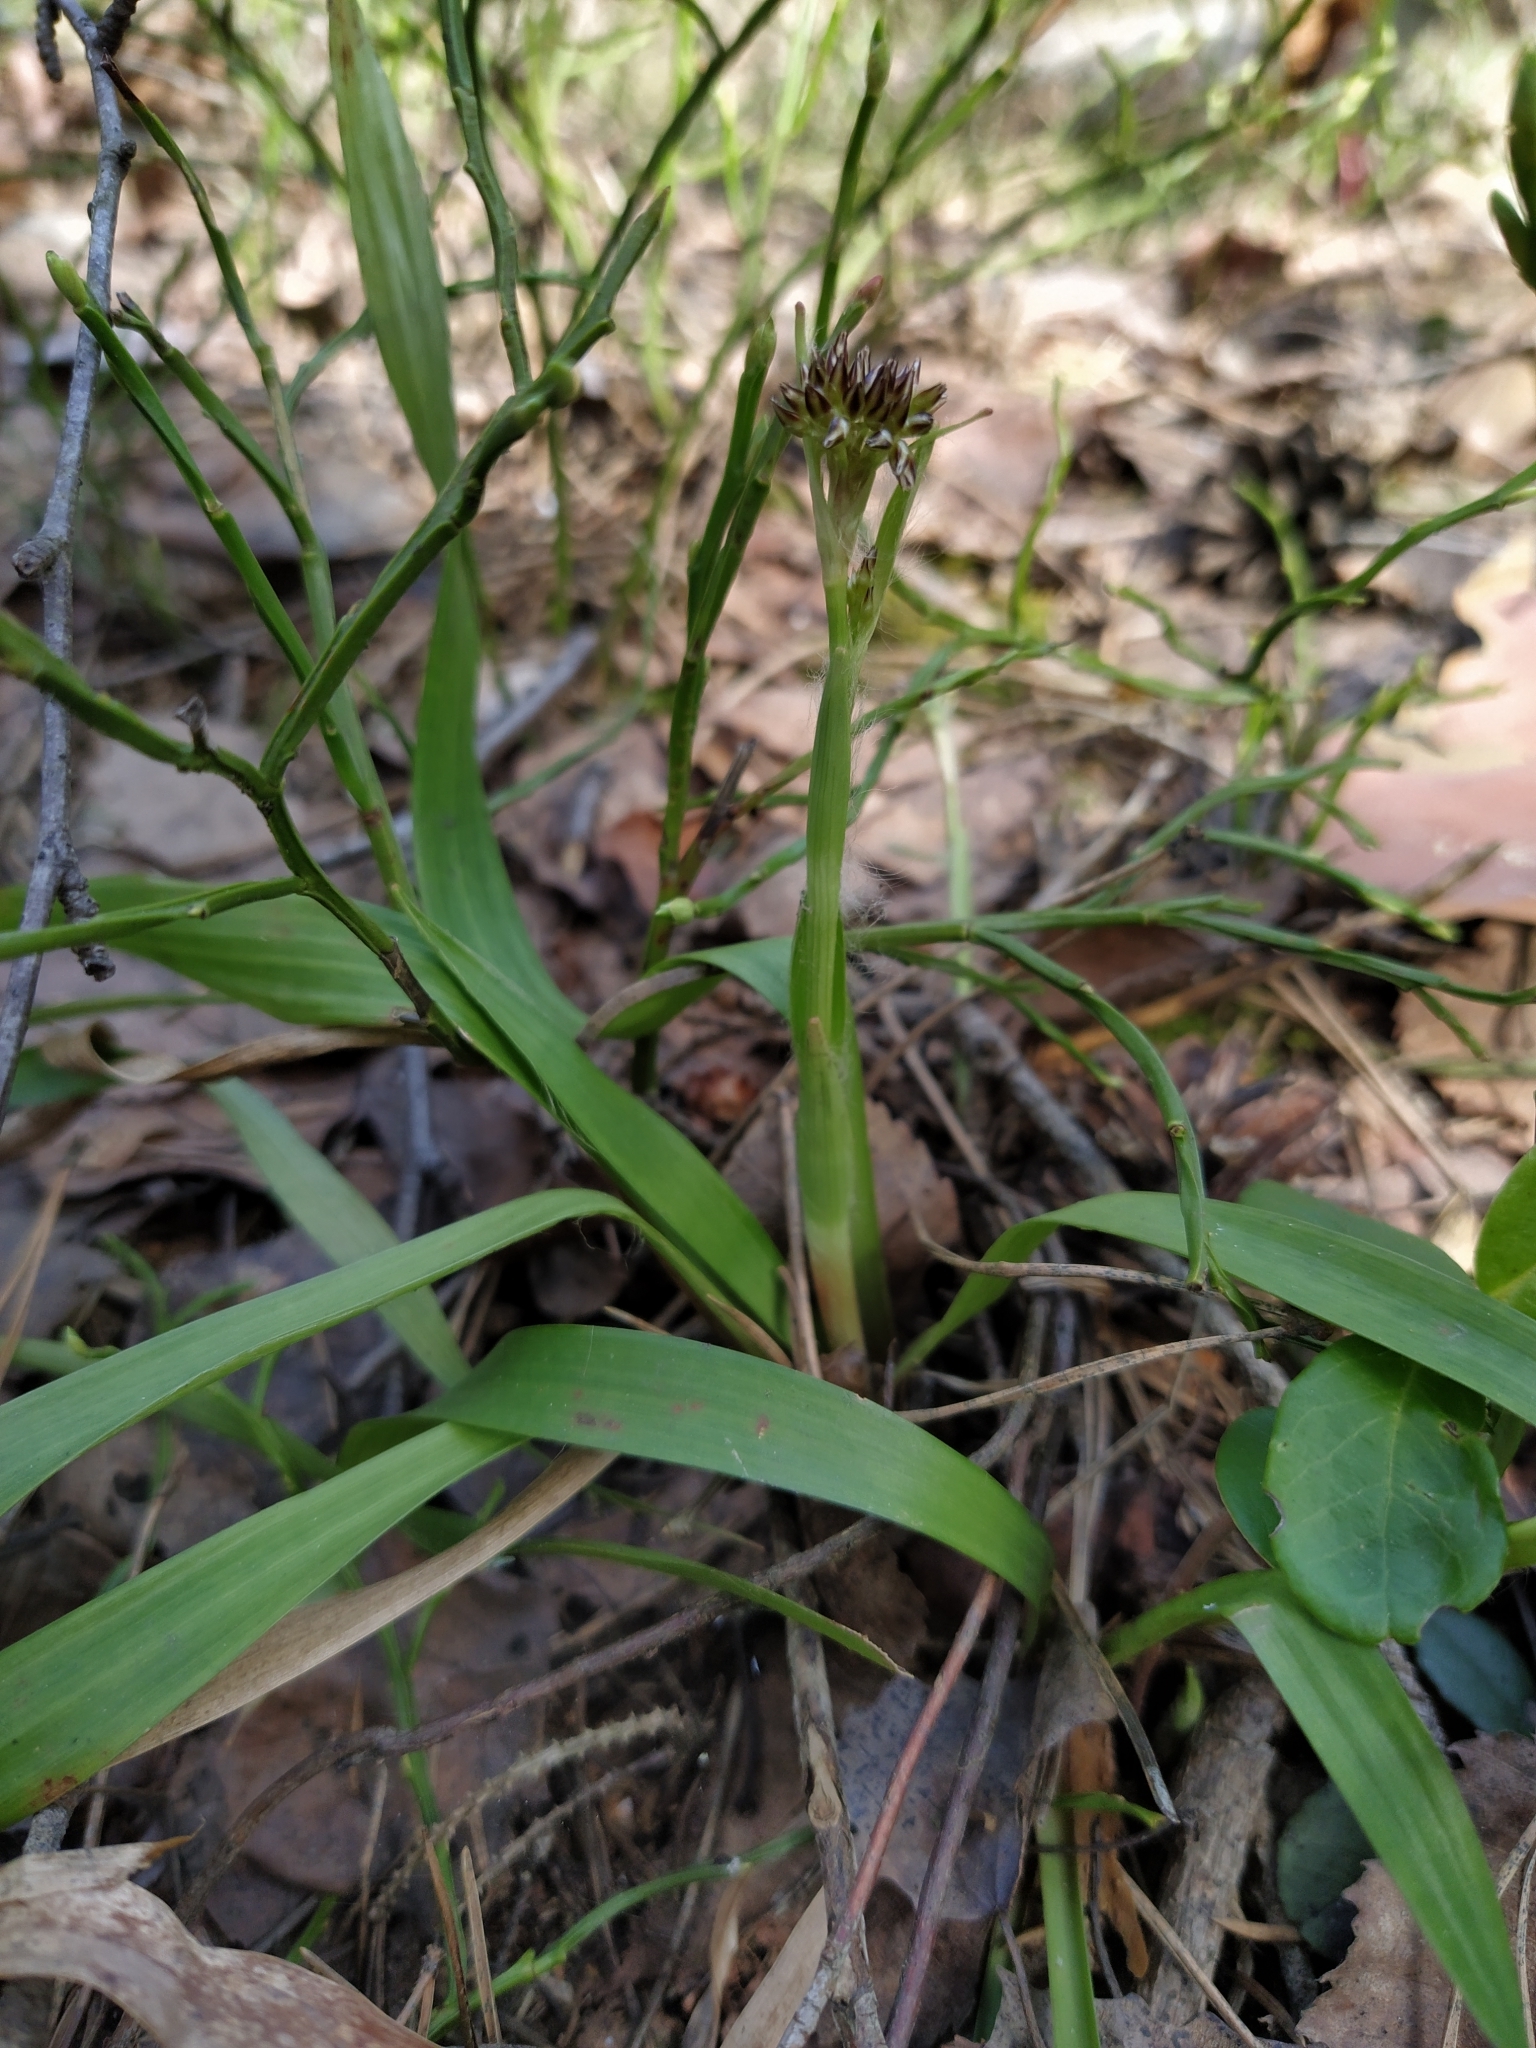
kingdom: Plantae
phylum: Tracheophyta
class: Liliopsida
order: Poales
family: Juncaceae
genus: Luzula
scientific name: Luzula pilosa
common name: Hairy wood-rush
